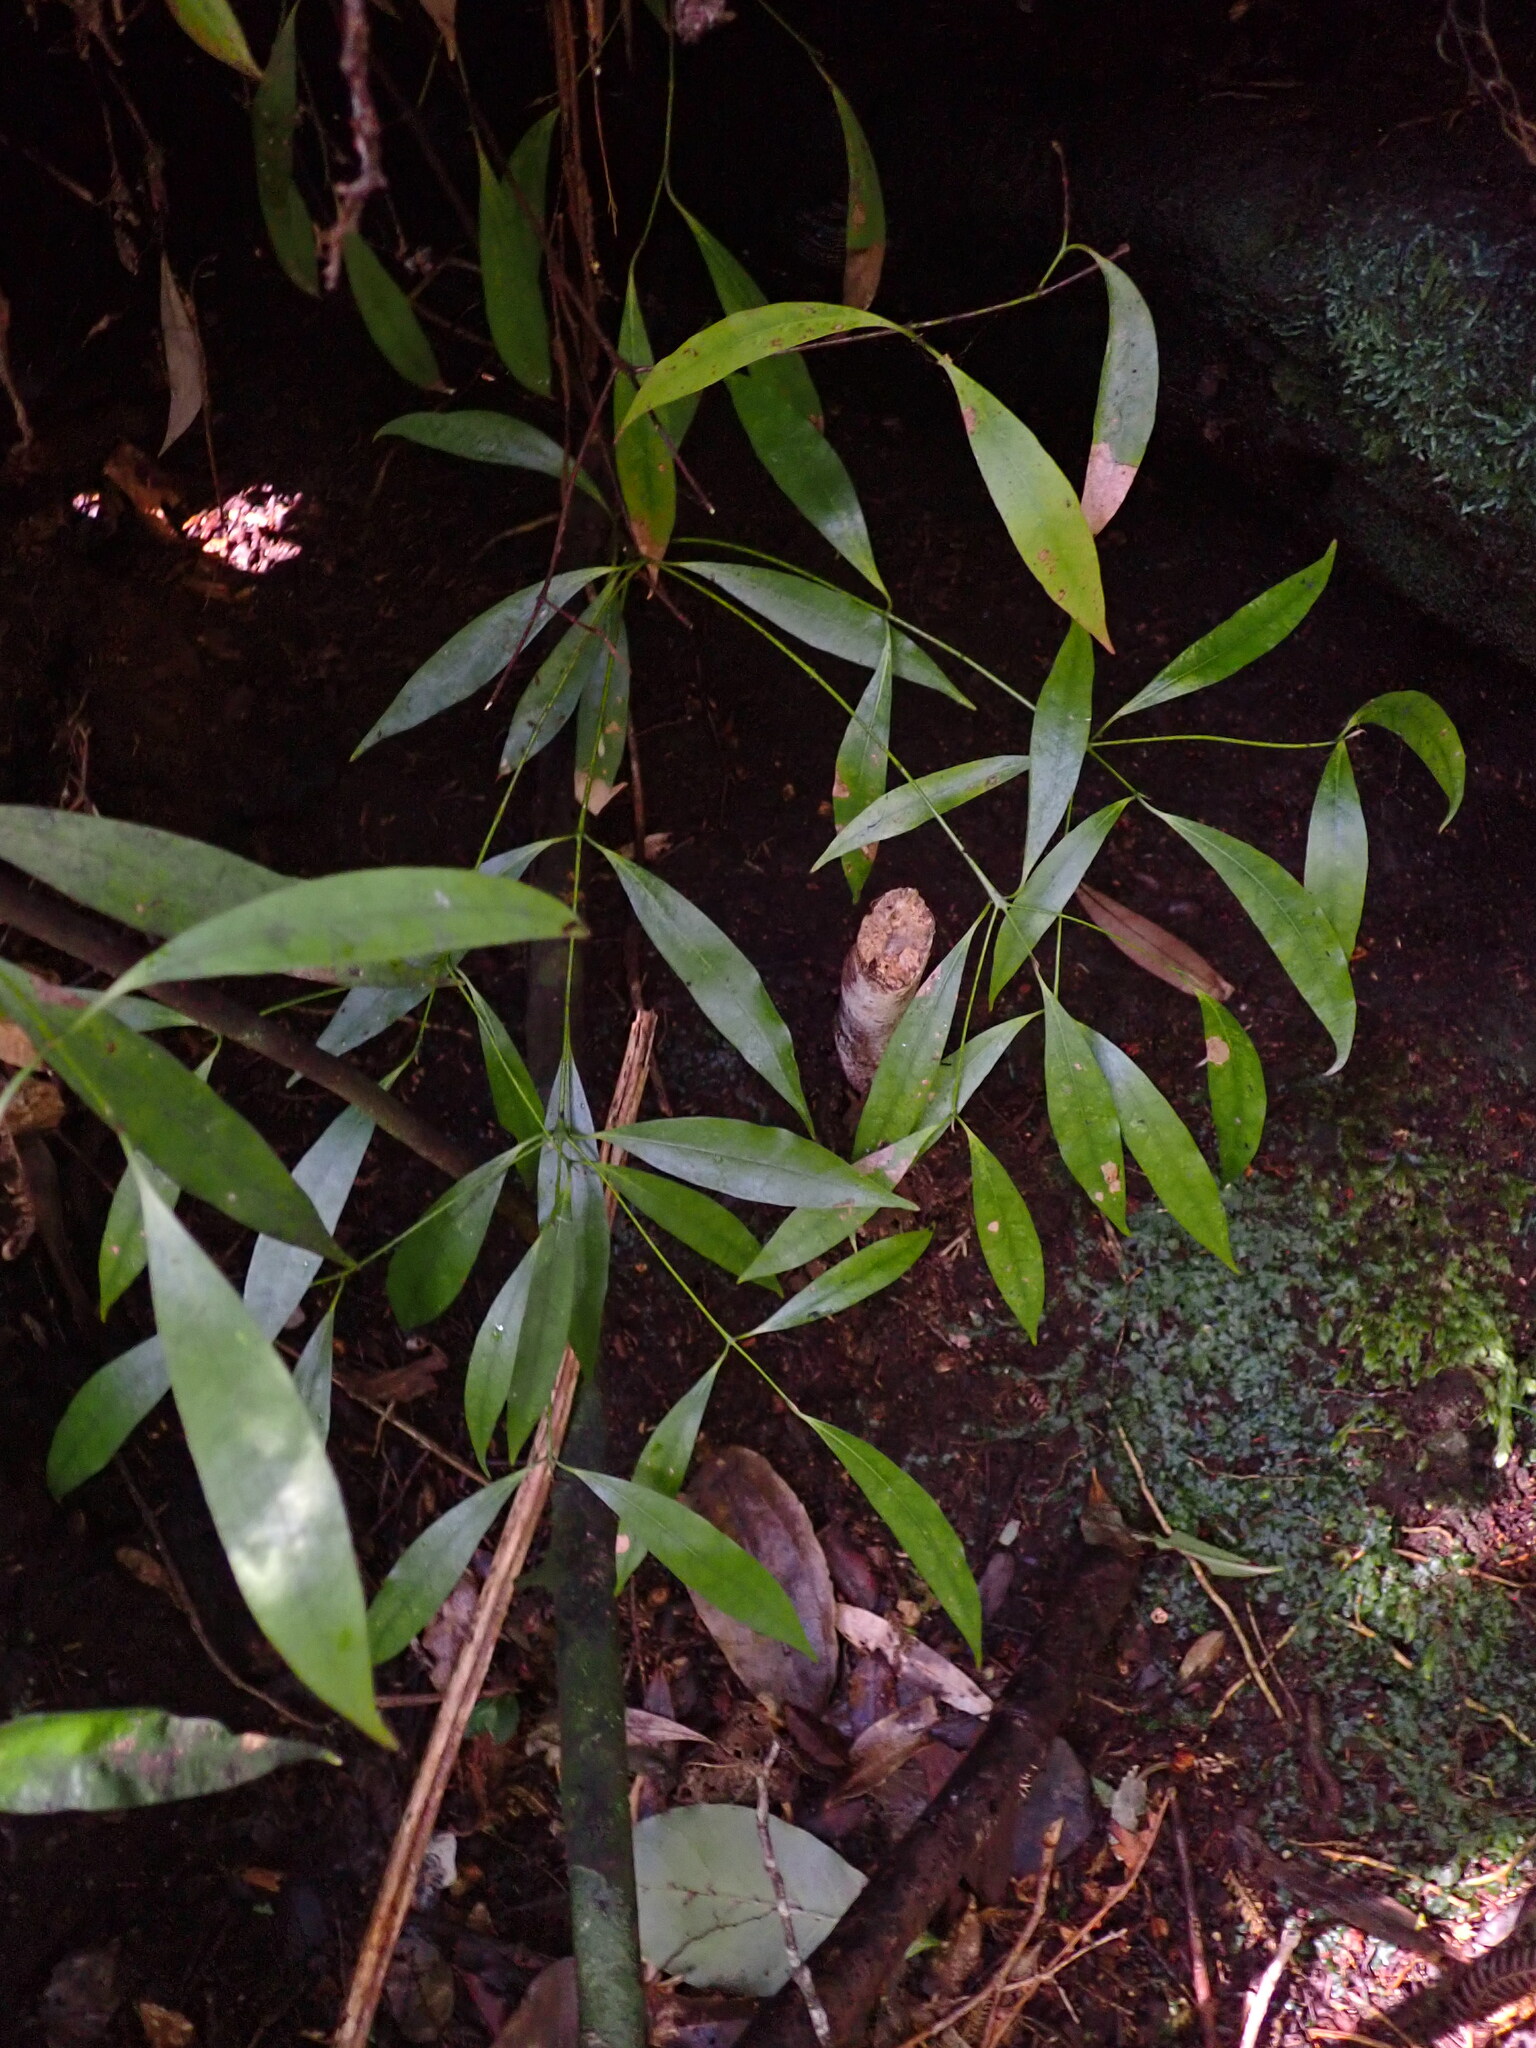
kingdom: Plantae
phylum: Tracheophyta
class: Magnoliopsida
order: Laurales
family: Lauraceae
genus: Beilschmiedia
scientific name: Beilschmiedia tawa
